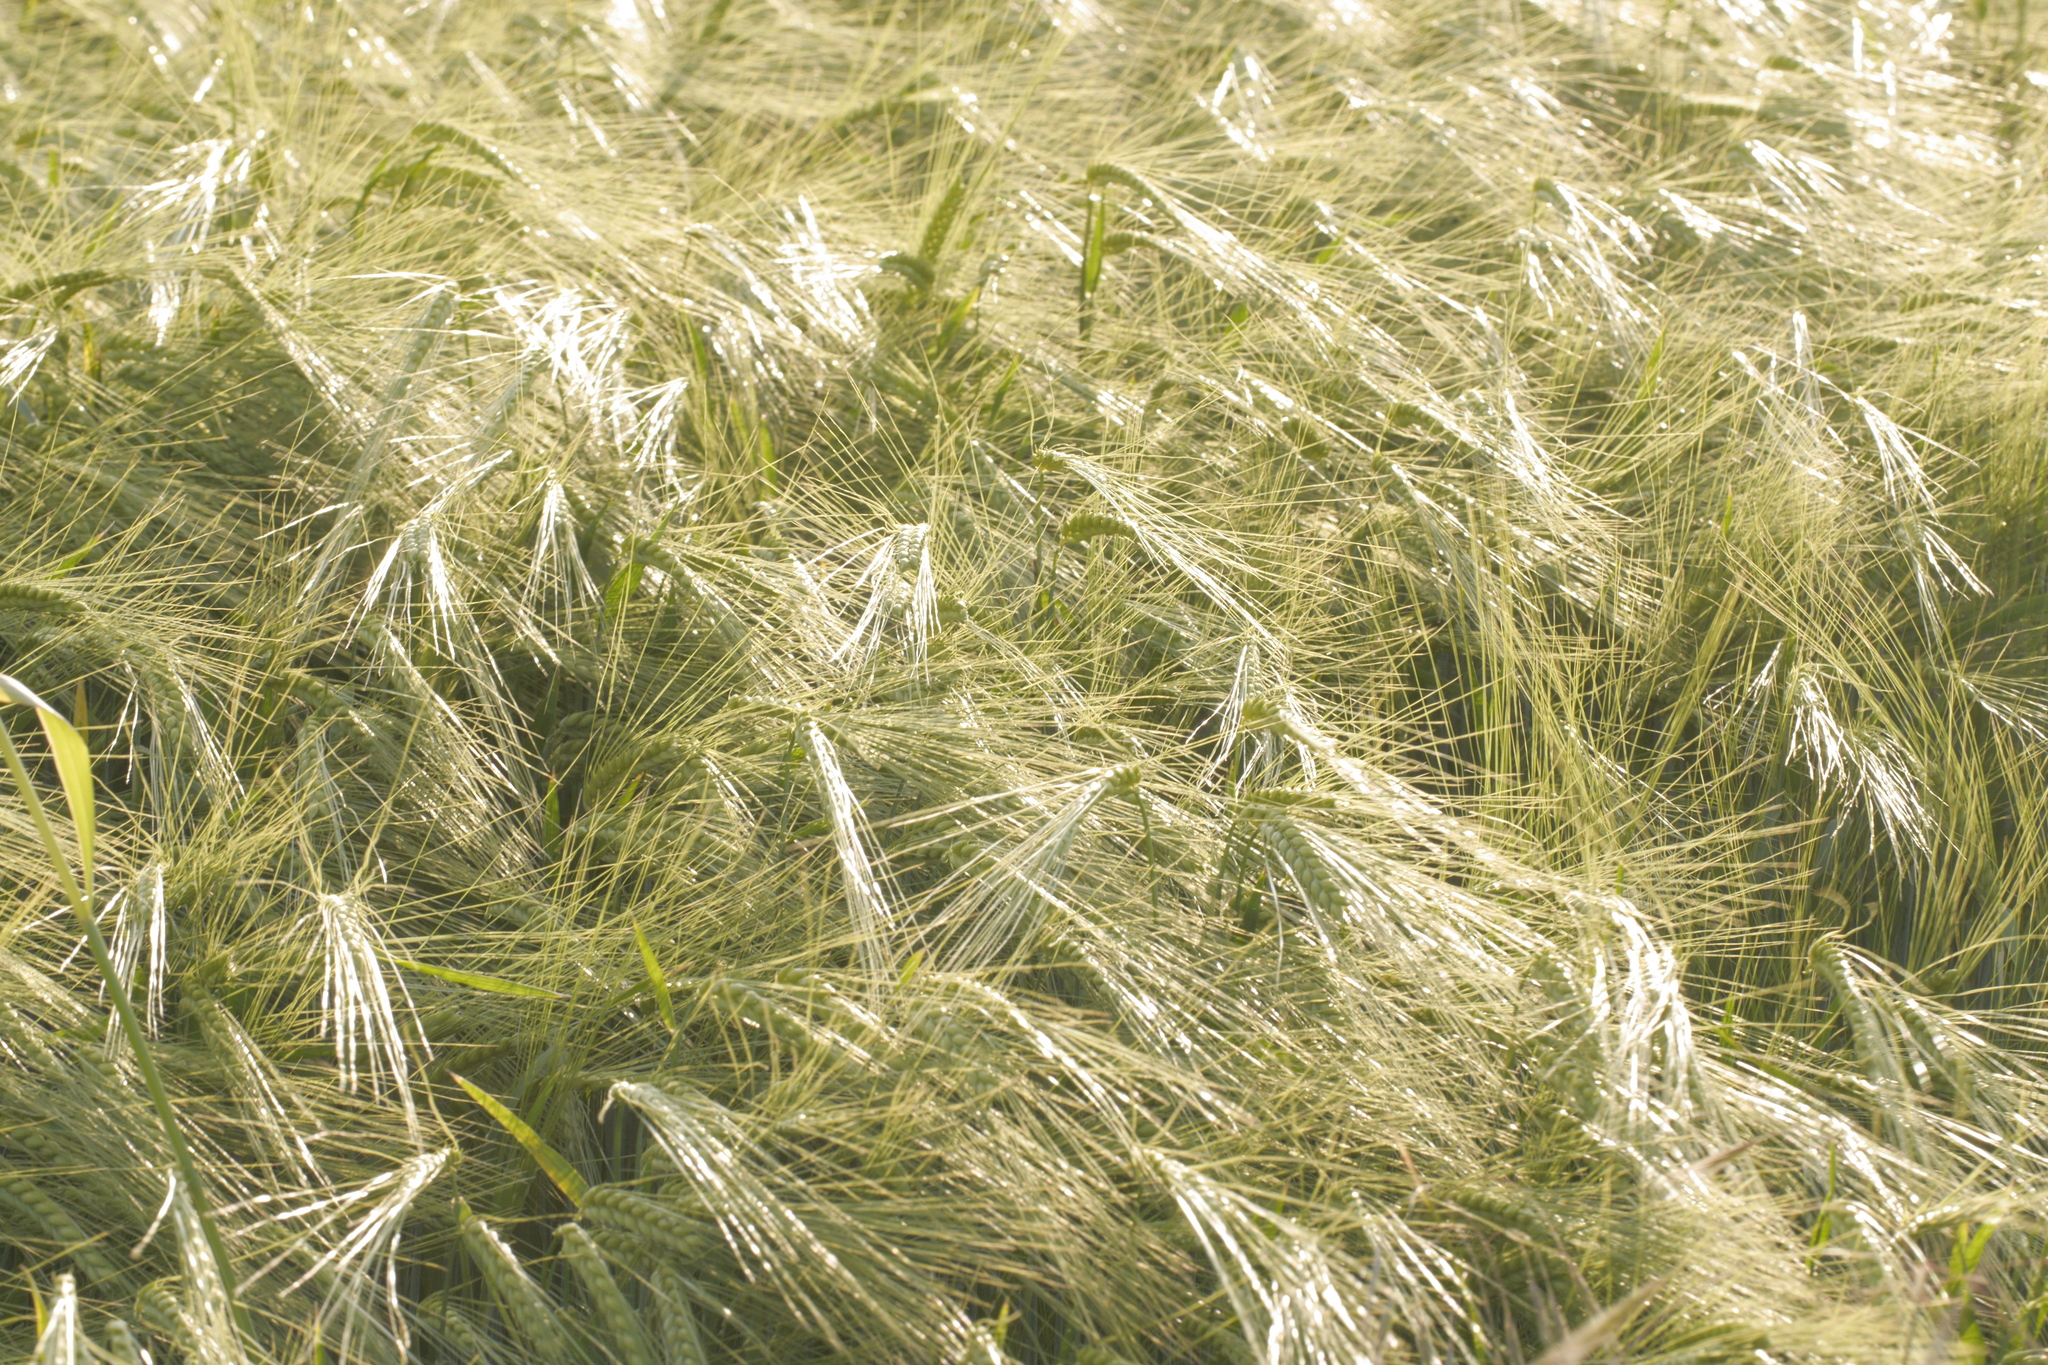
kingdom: Plantae
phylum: Tracheophyta
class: Liliopsida
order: Poales
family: Poaceae
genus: Hordeum
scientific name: Hordeum vulgare
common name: Common barley
